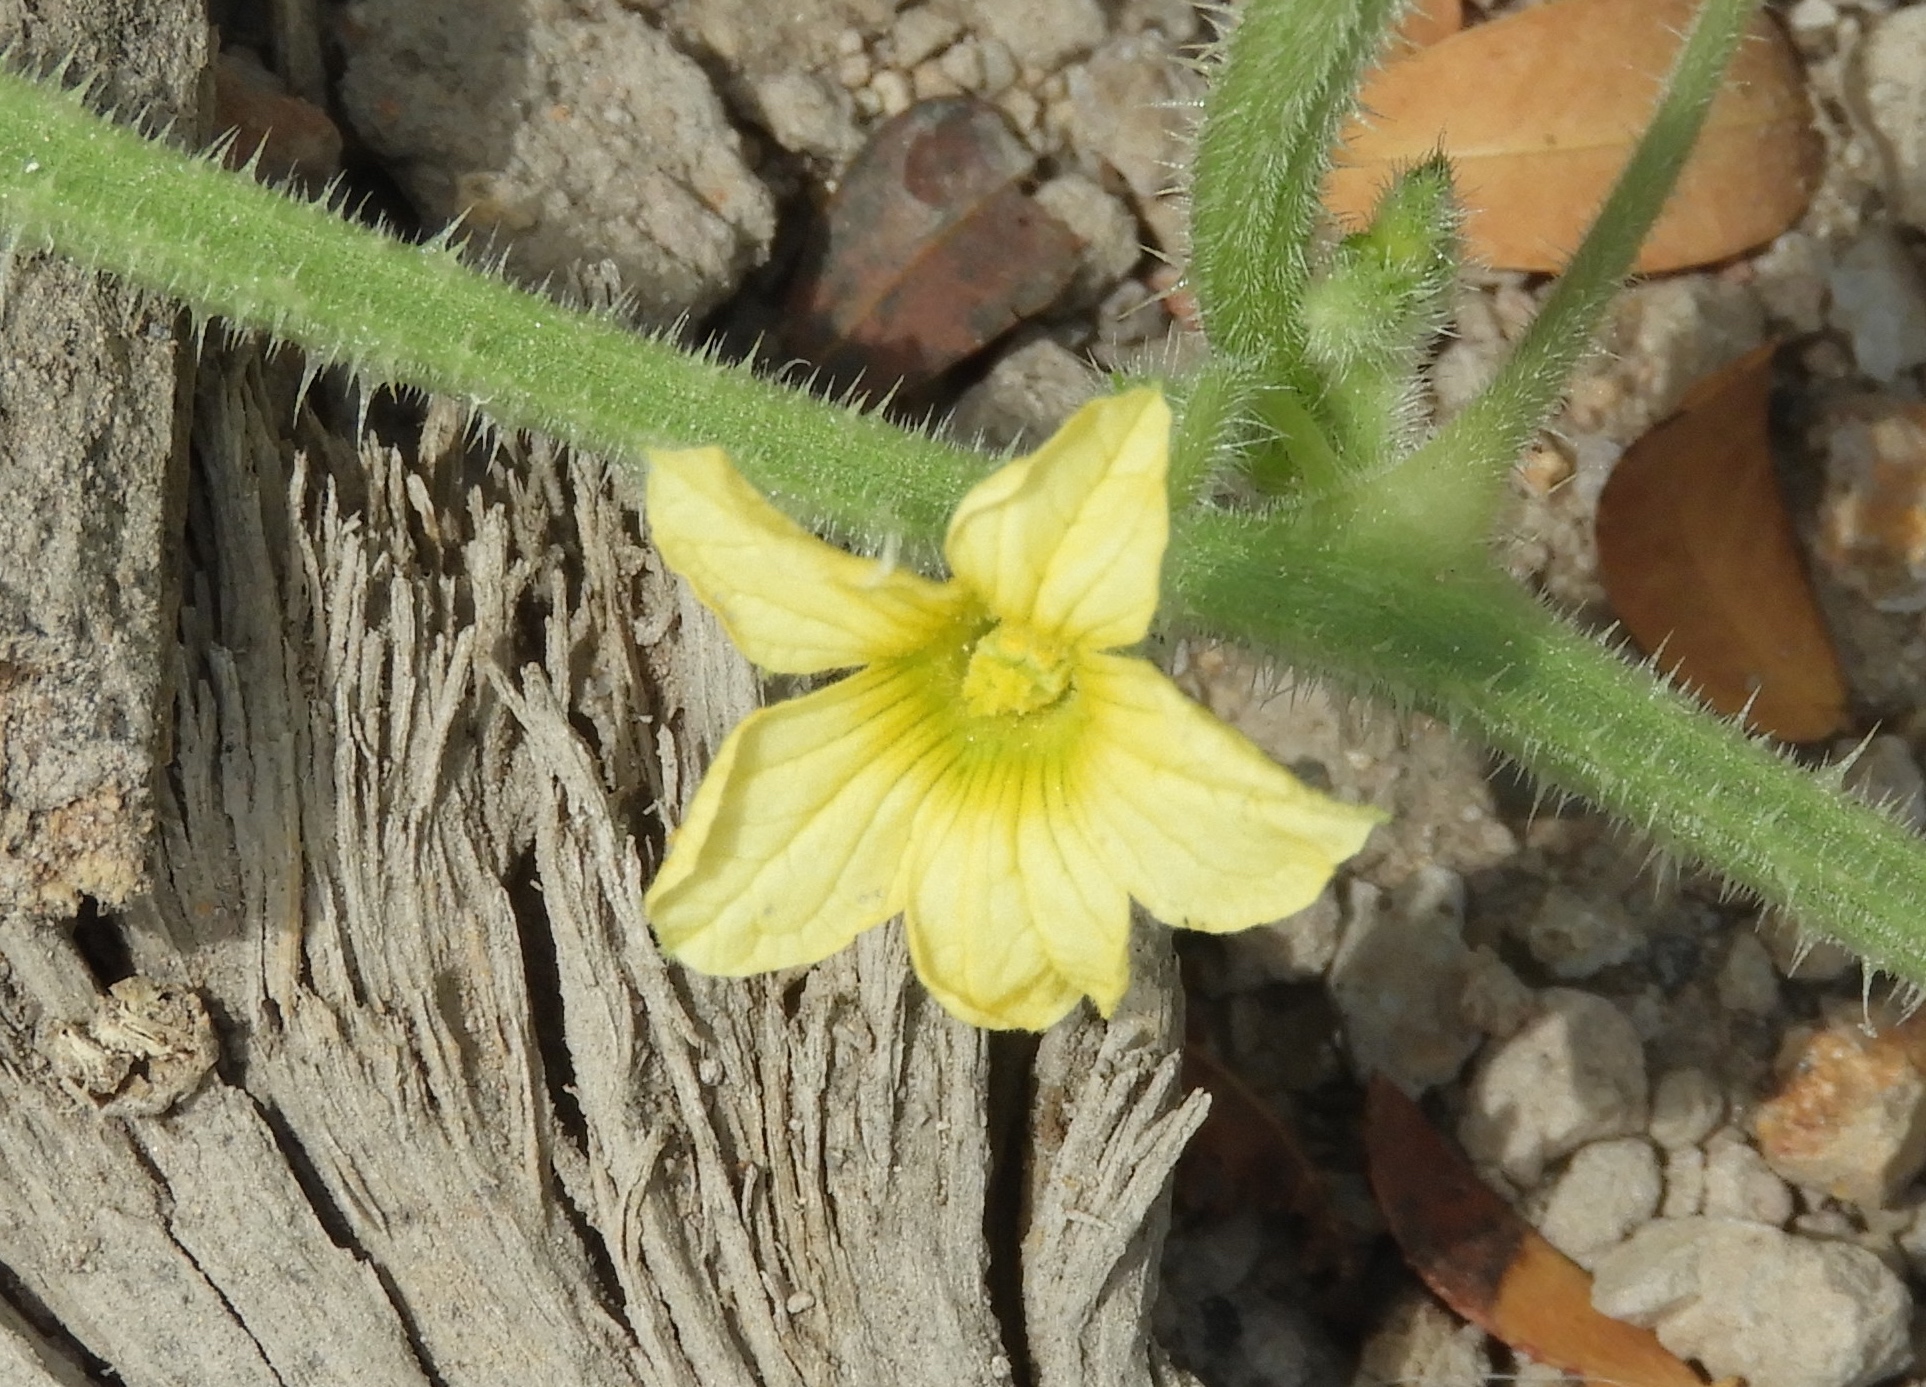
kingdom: Plantae
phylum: Tracheophyta
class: Magnoliopsida
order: Cucurbitales
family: Cucurbitaceae
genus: Cucumis
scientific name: Cucumis dipsaceus
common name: Hedgehog gourd
